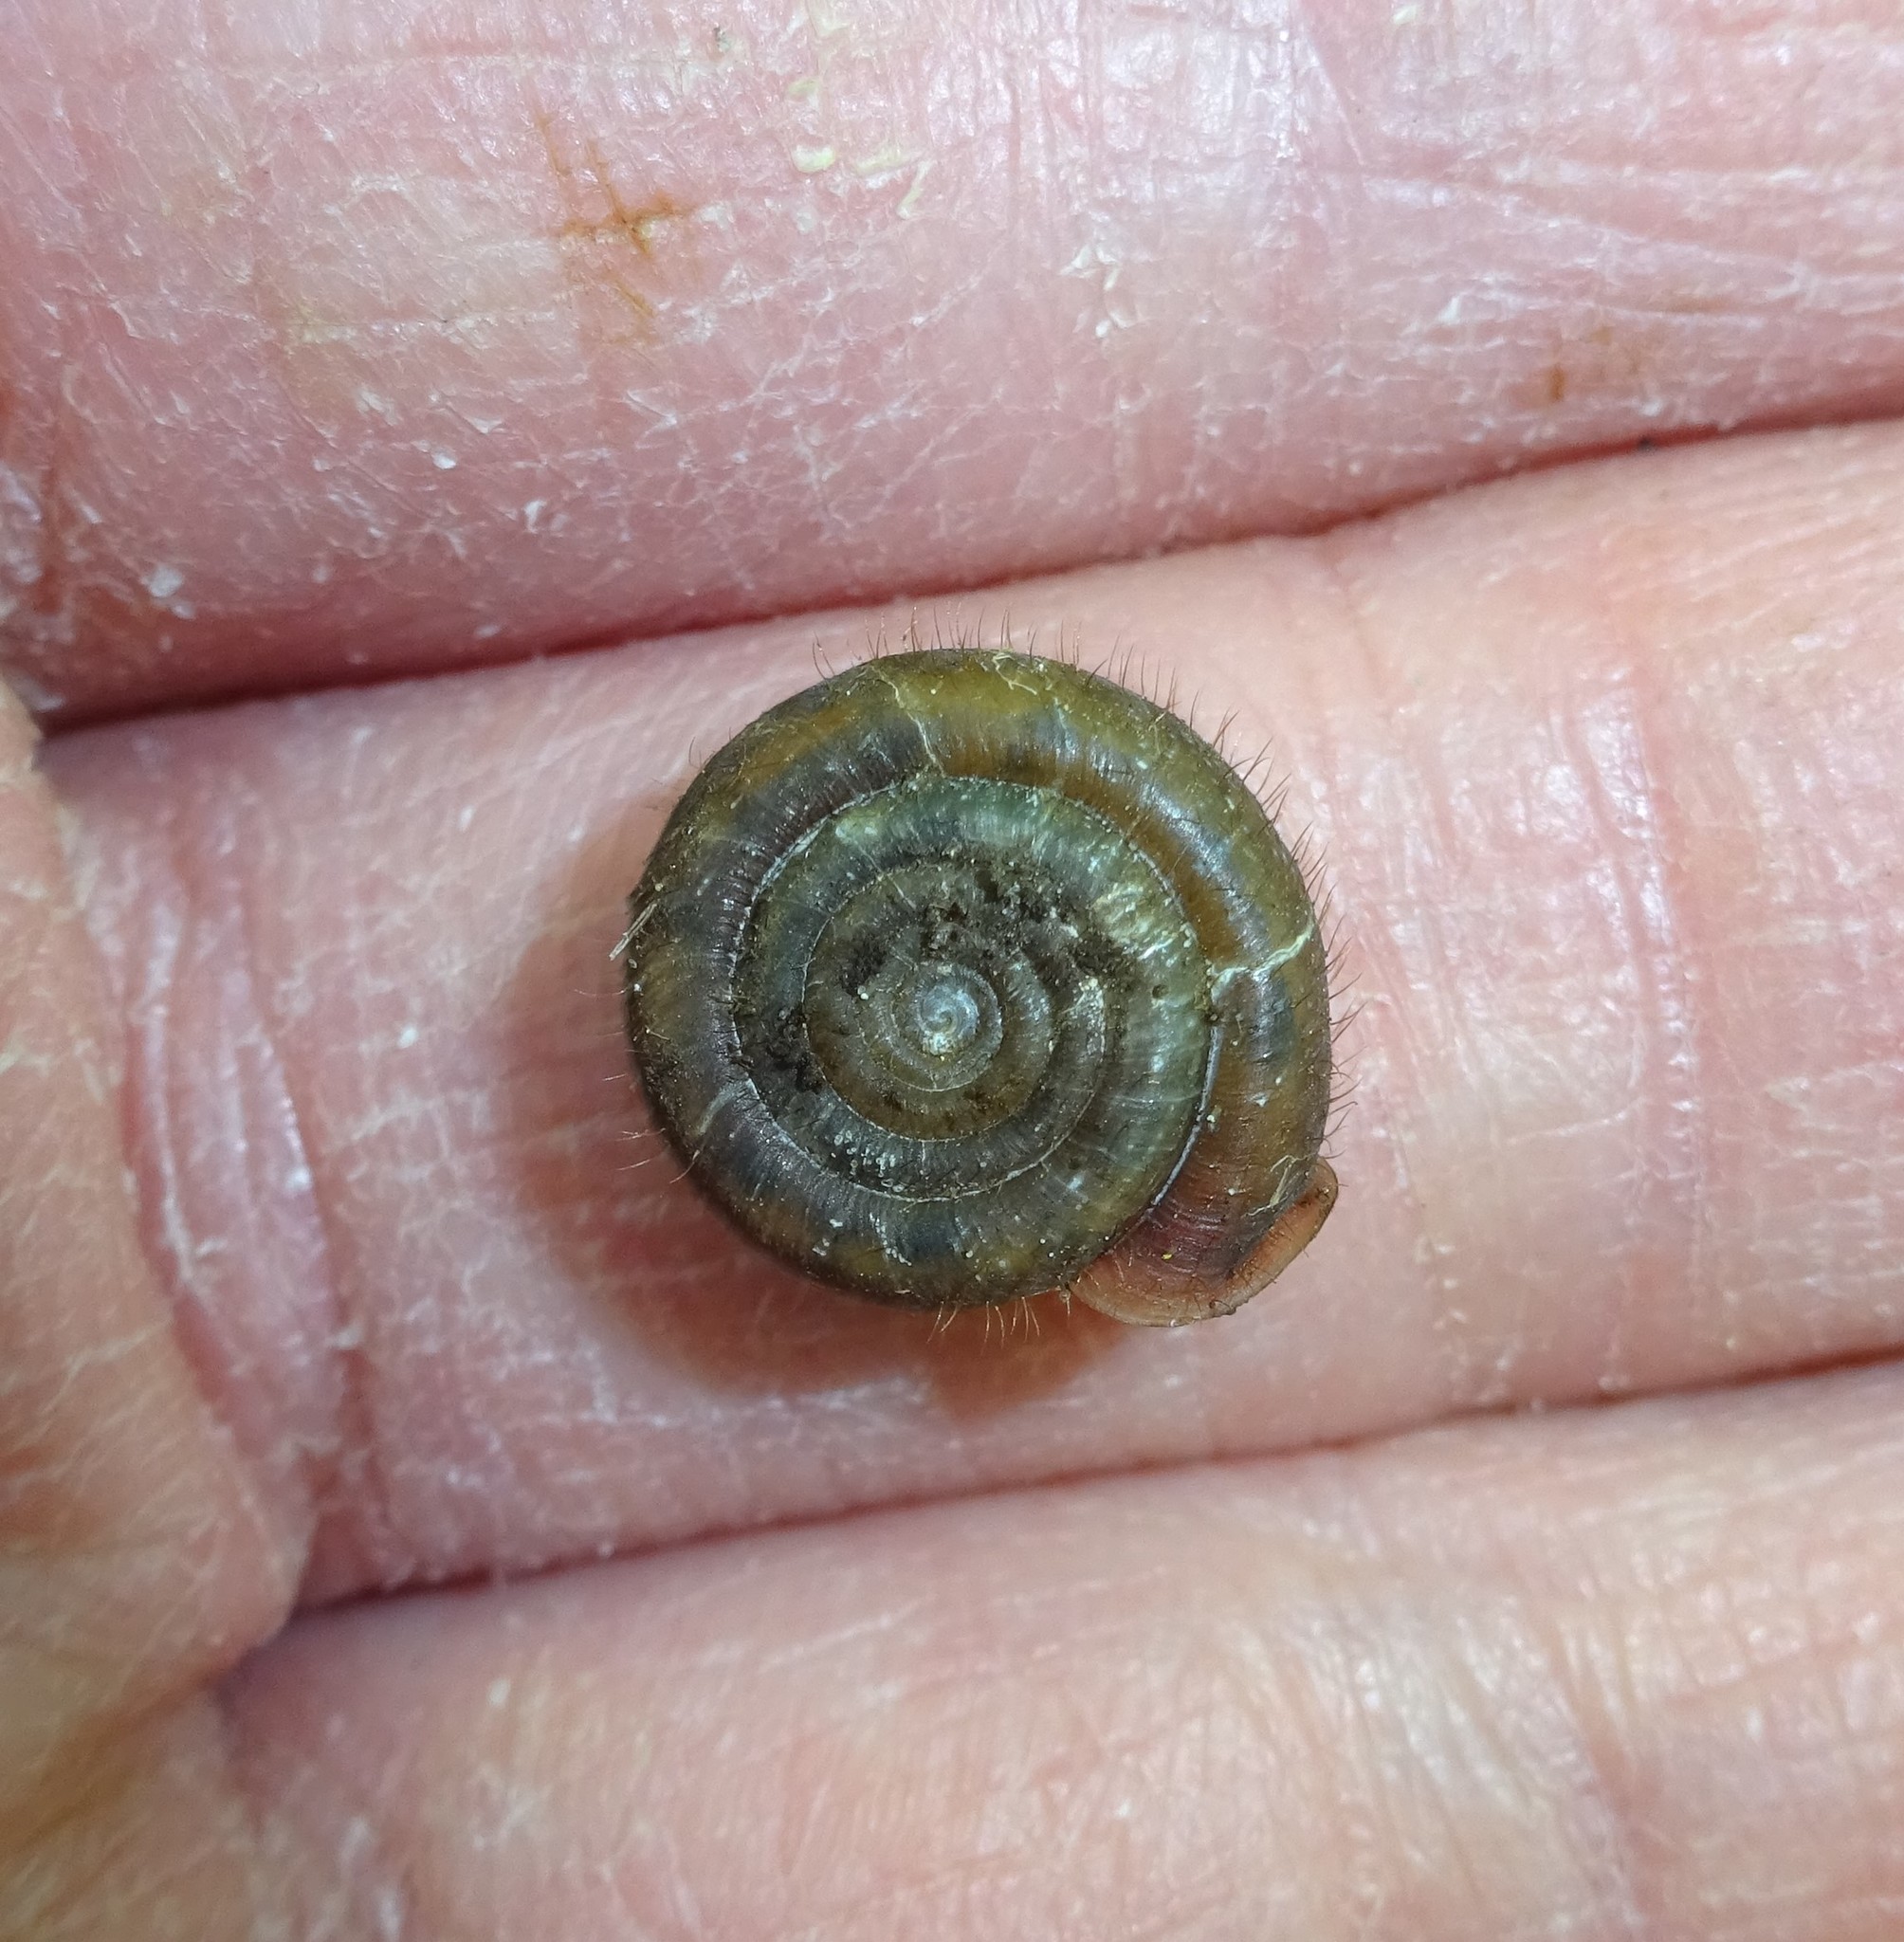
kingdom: Animalia
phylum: Mollusca
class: Gastropoda
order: Stylommatophora
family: Helicodontidae
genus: Helicodonta
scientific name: Helicodonta obvoluta
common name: Cheese snail
